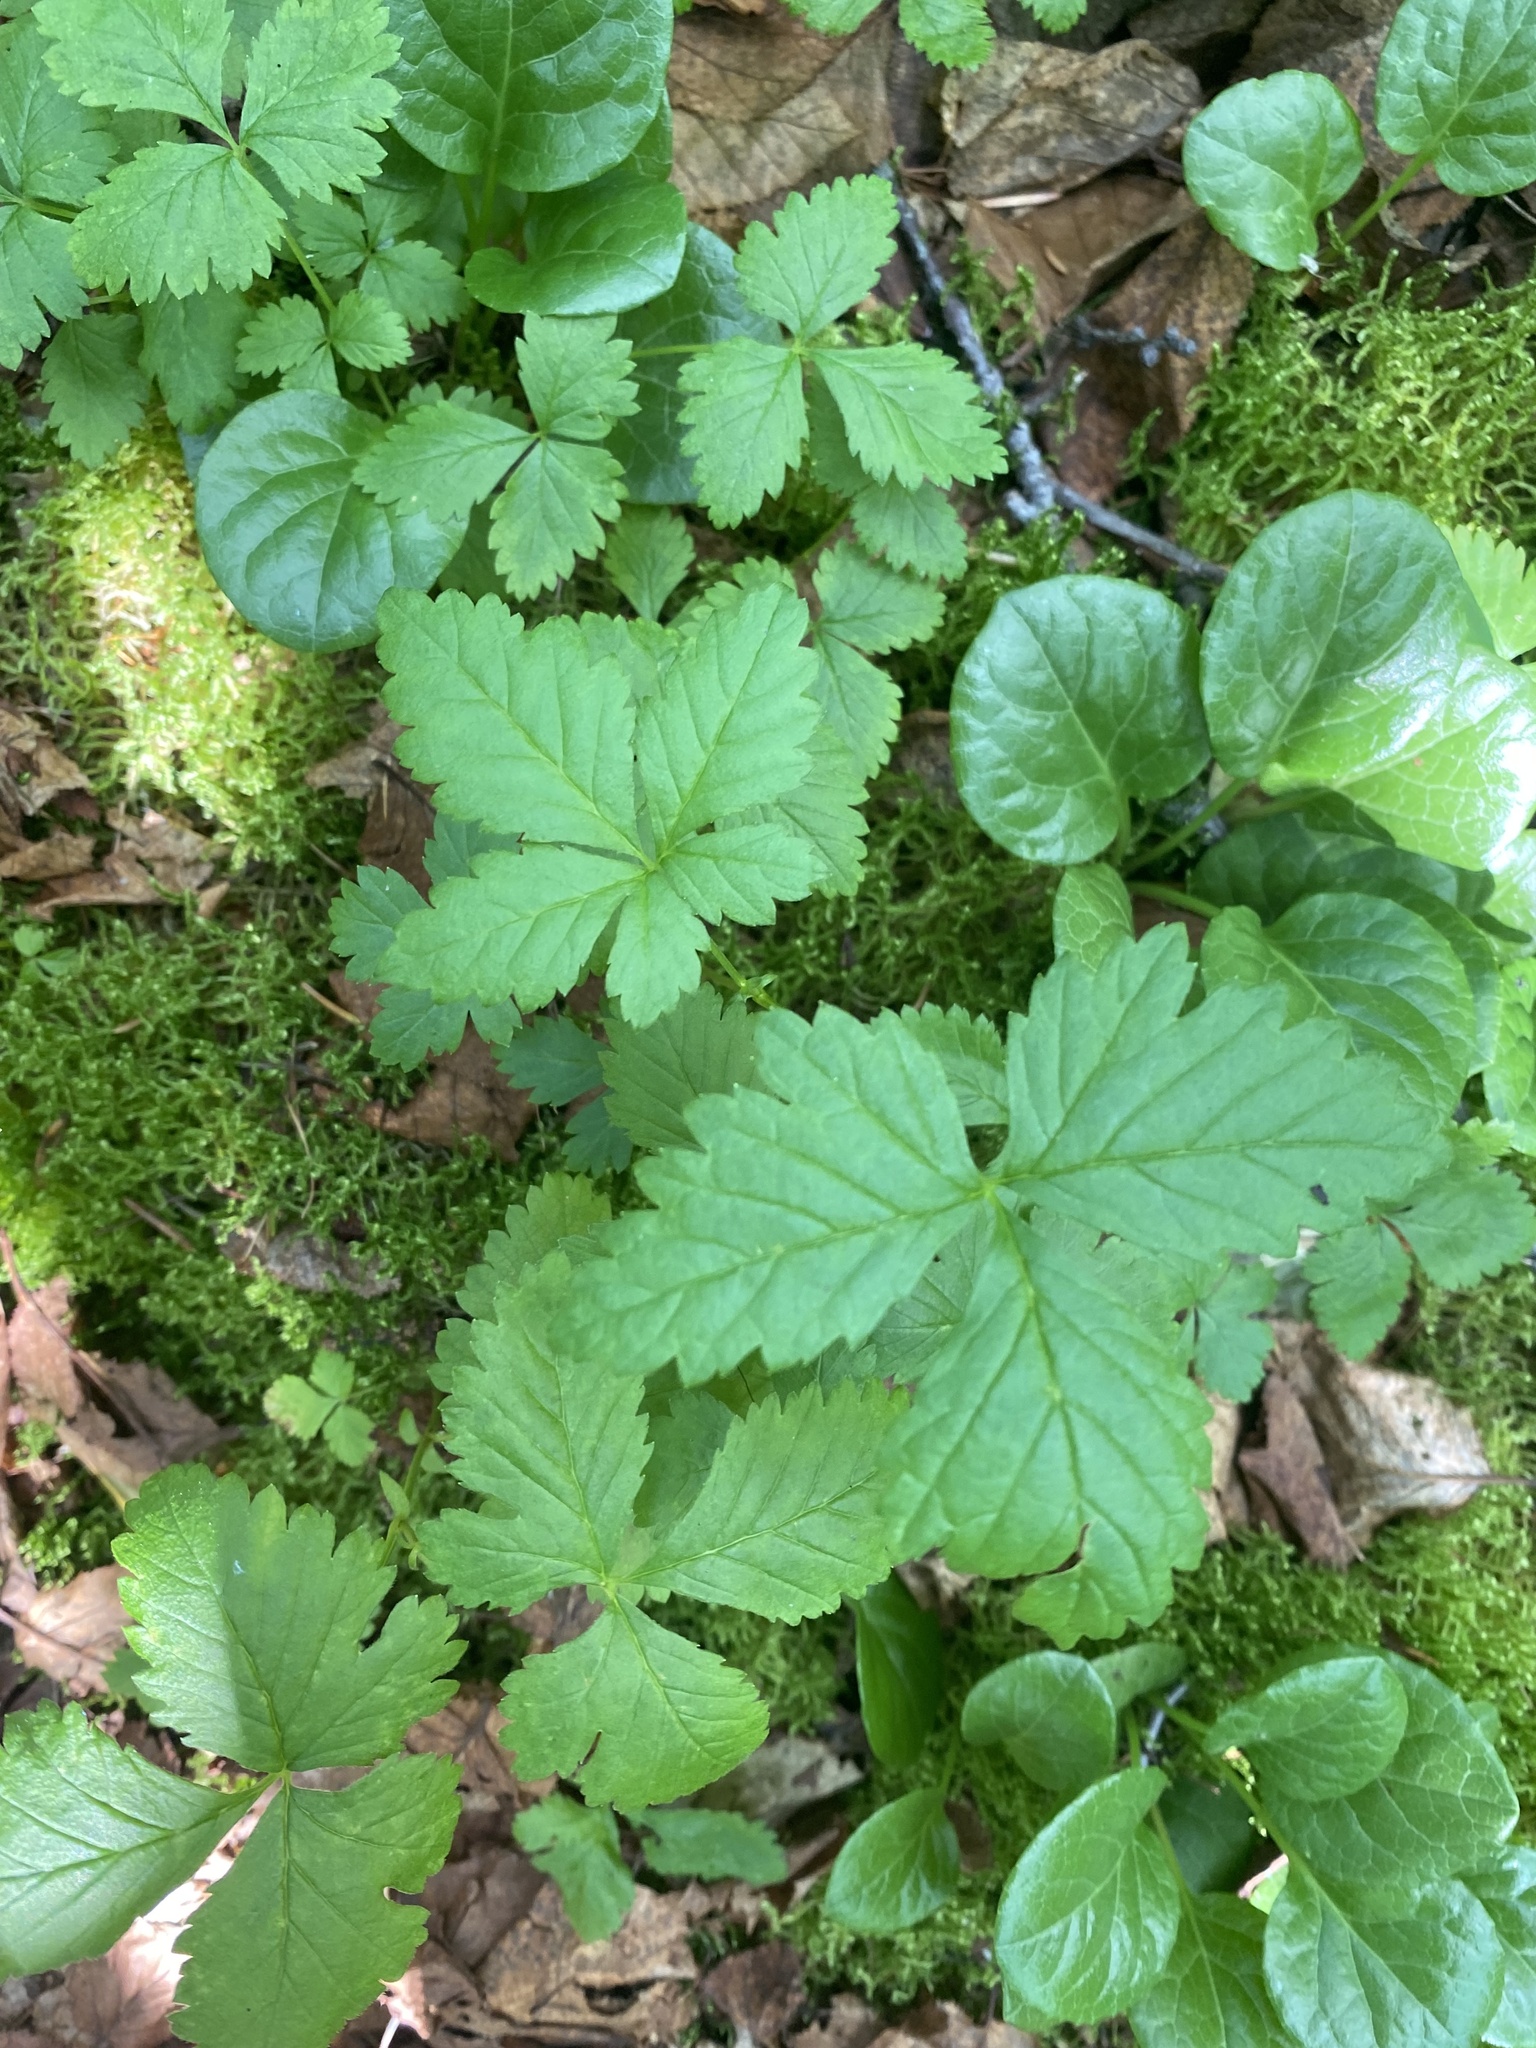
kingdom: Plantae
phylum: Tracheophyta
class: Magnoliopsida
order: Rosales
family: Rosaceae
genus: Rubus
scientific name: Rubus arcticus
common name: Arctic bramble
